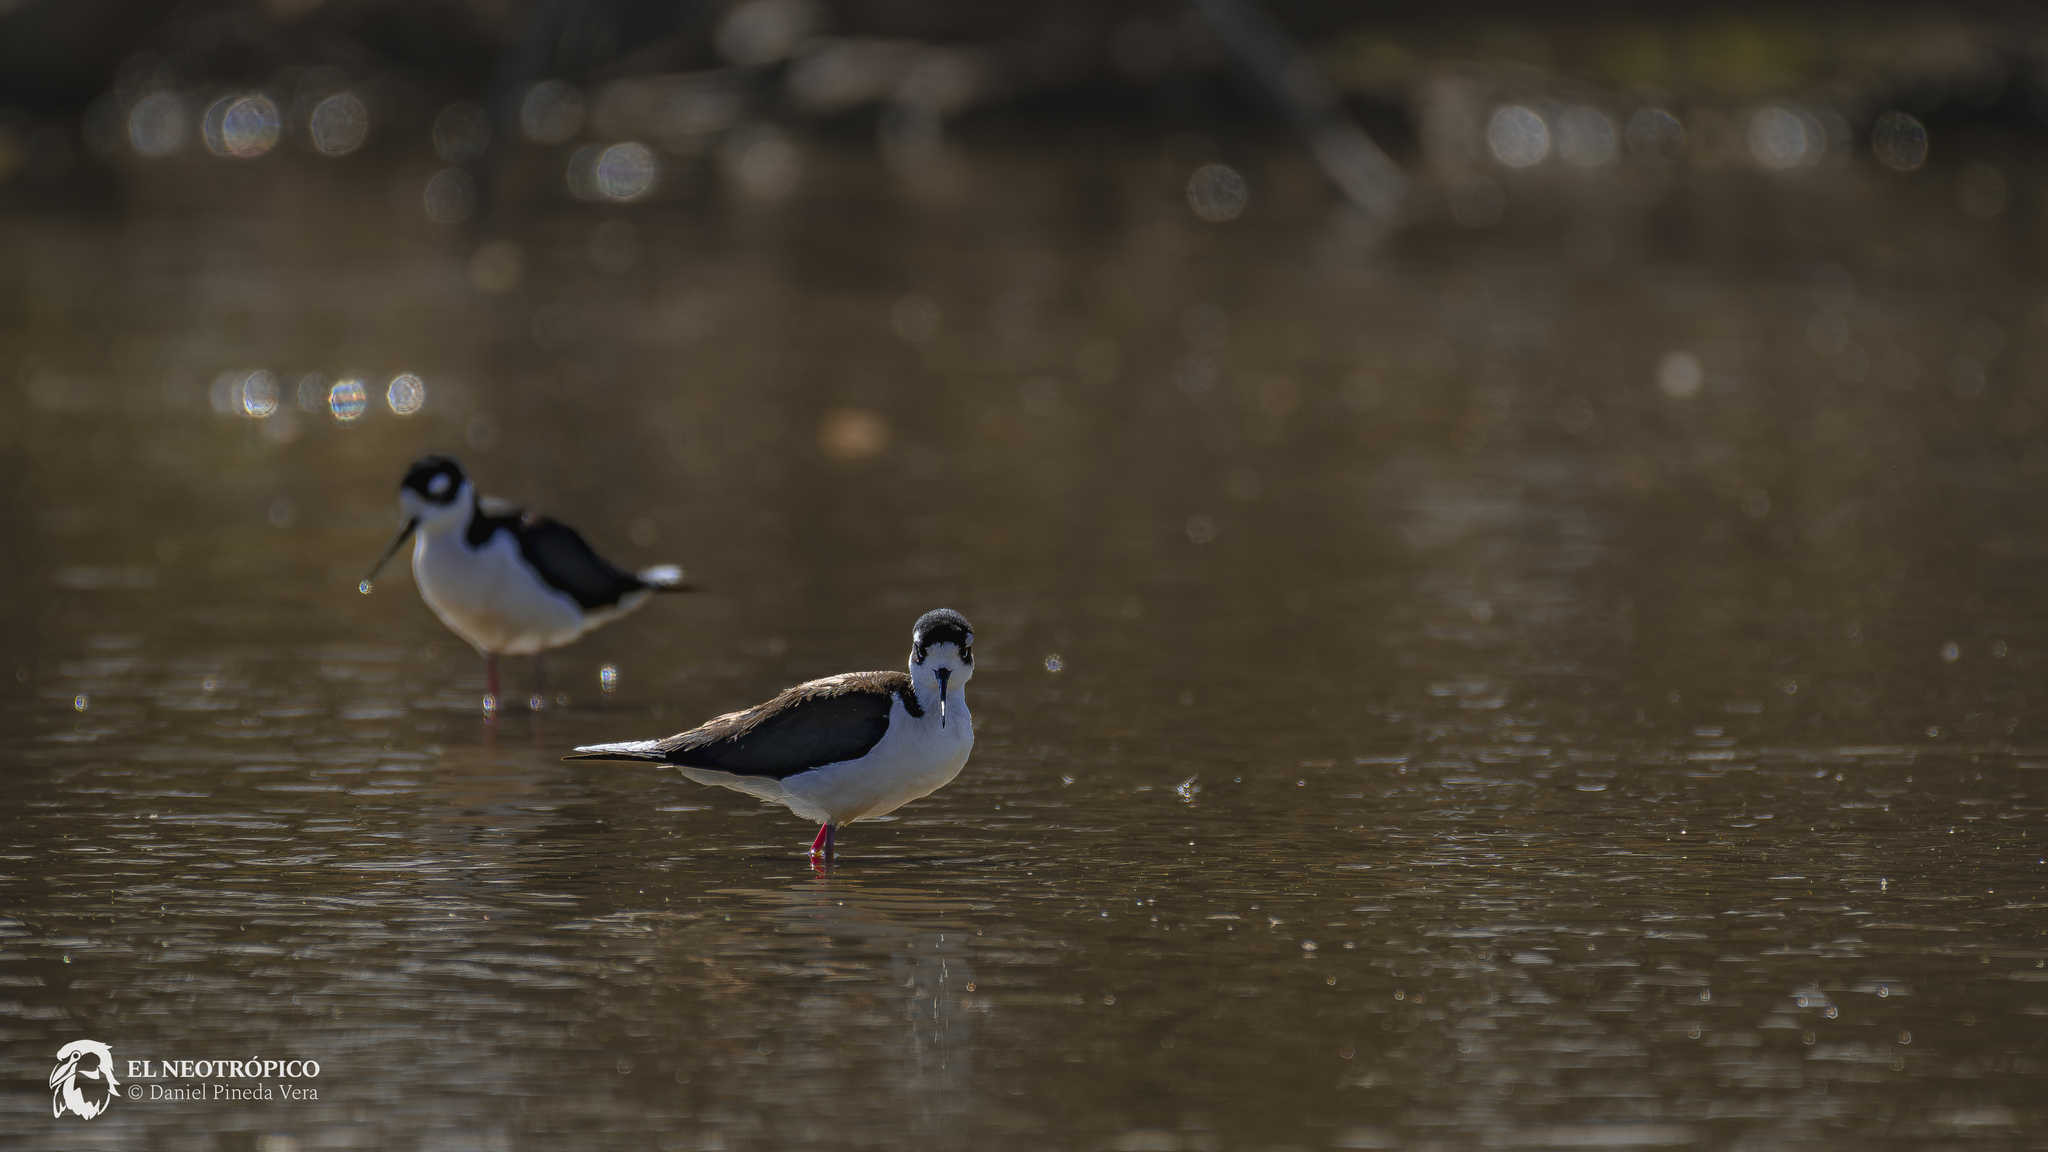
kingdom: Animalia
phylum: Chordata
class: Aves
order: Charadriiformes
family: Recurvirostridae
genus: Himantopus
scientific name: Himantopus mexicanus
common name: Black-necked stilt
